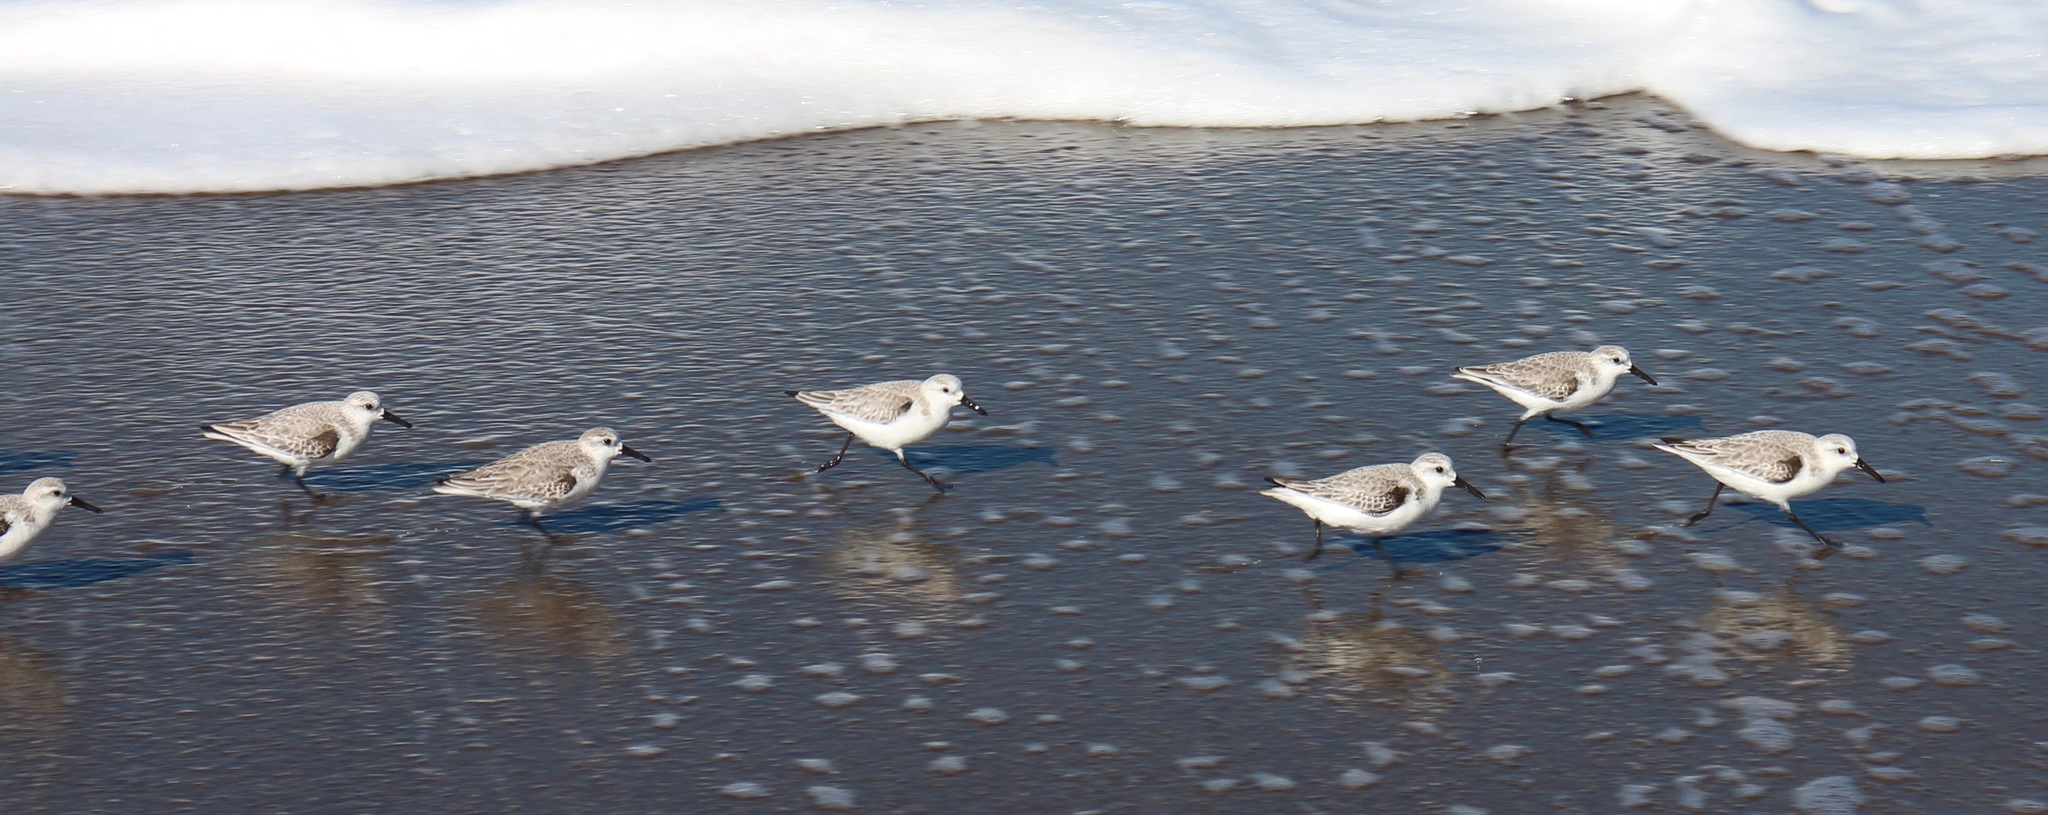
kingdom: Animalia
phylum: Chordata
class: Aves
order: Charadriiformes
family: Scolopacidae
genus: Calidris
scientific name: Calidris alba
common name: Sanderling
